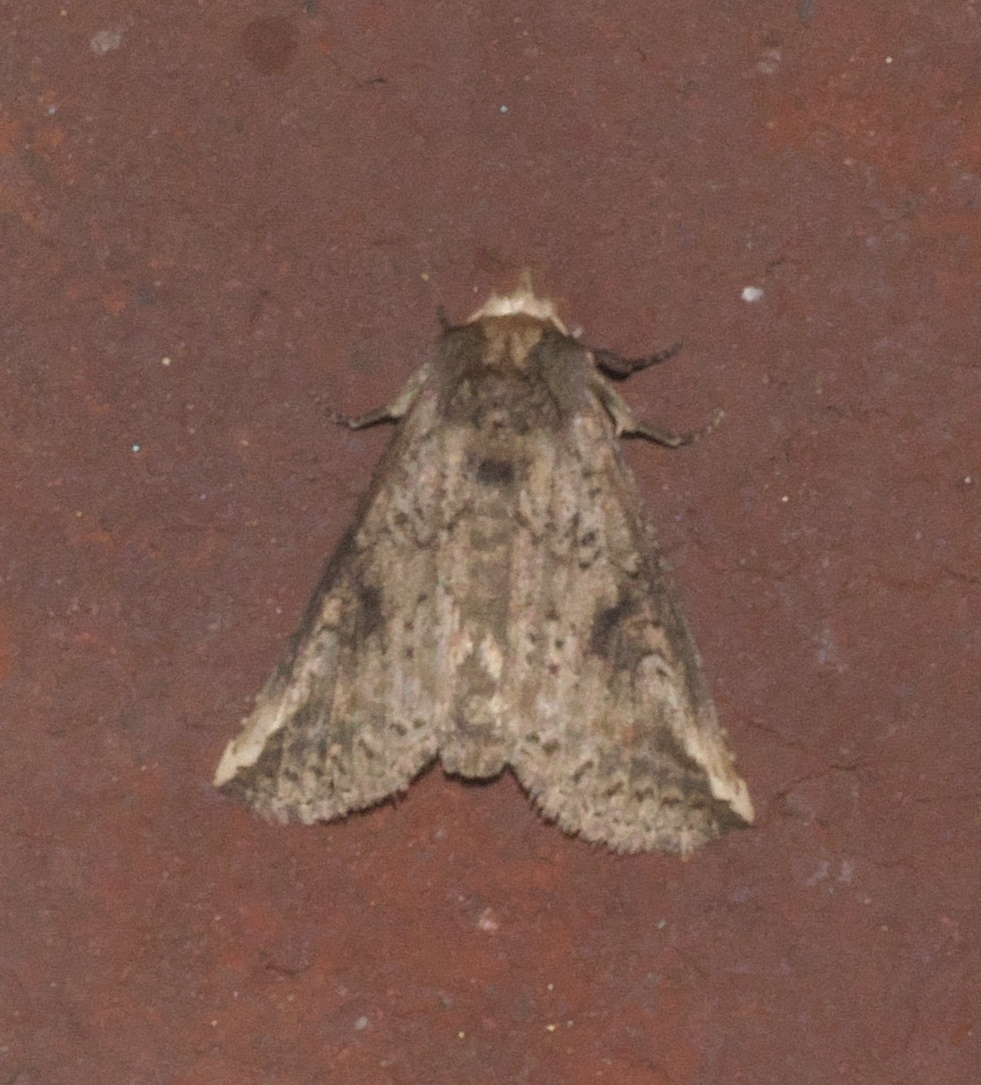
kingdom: Animalia
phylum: Arthropoda
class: Insecta
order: Lepidoptera
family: Notodontidae
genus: Elasmia
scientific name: Elasmia packardii
